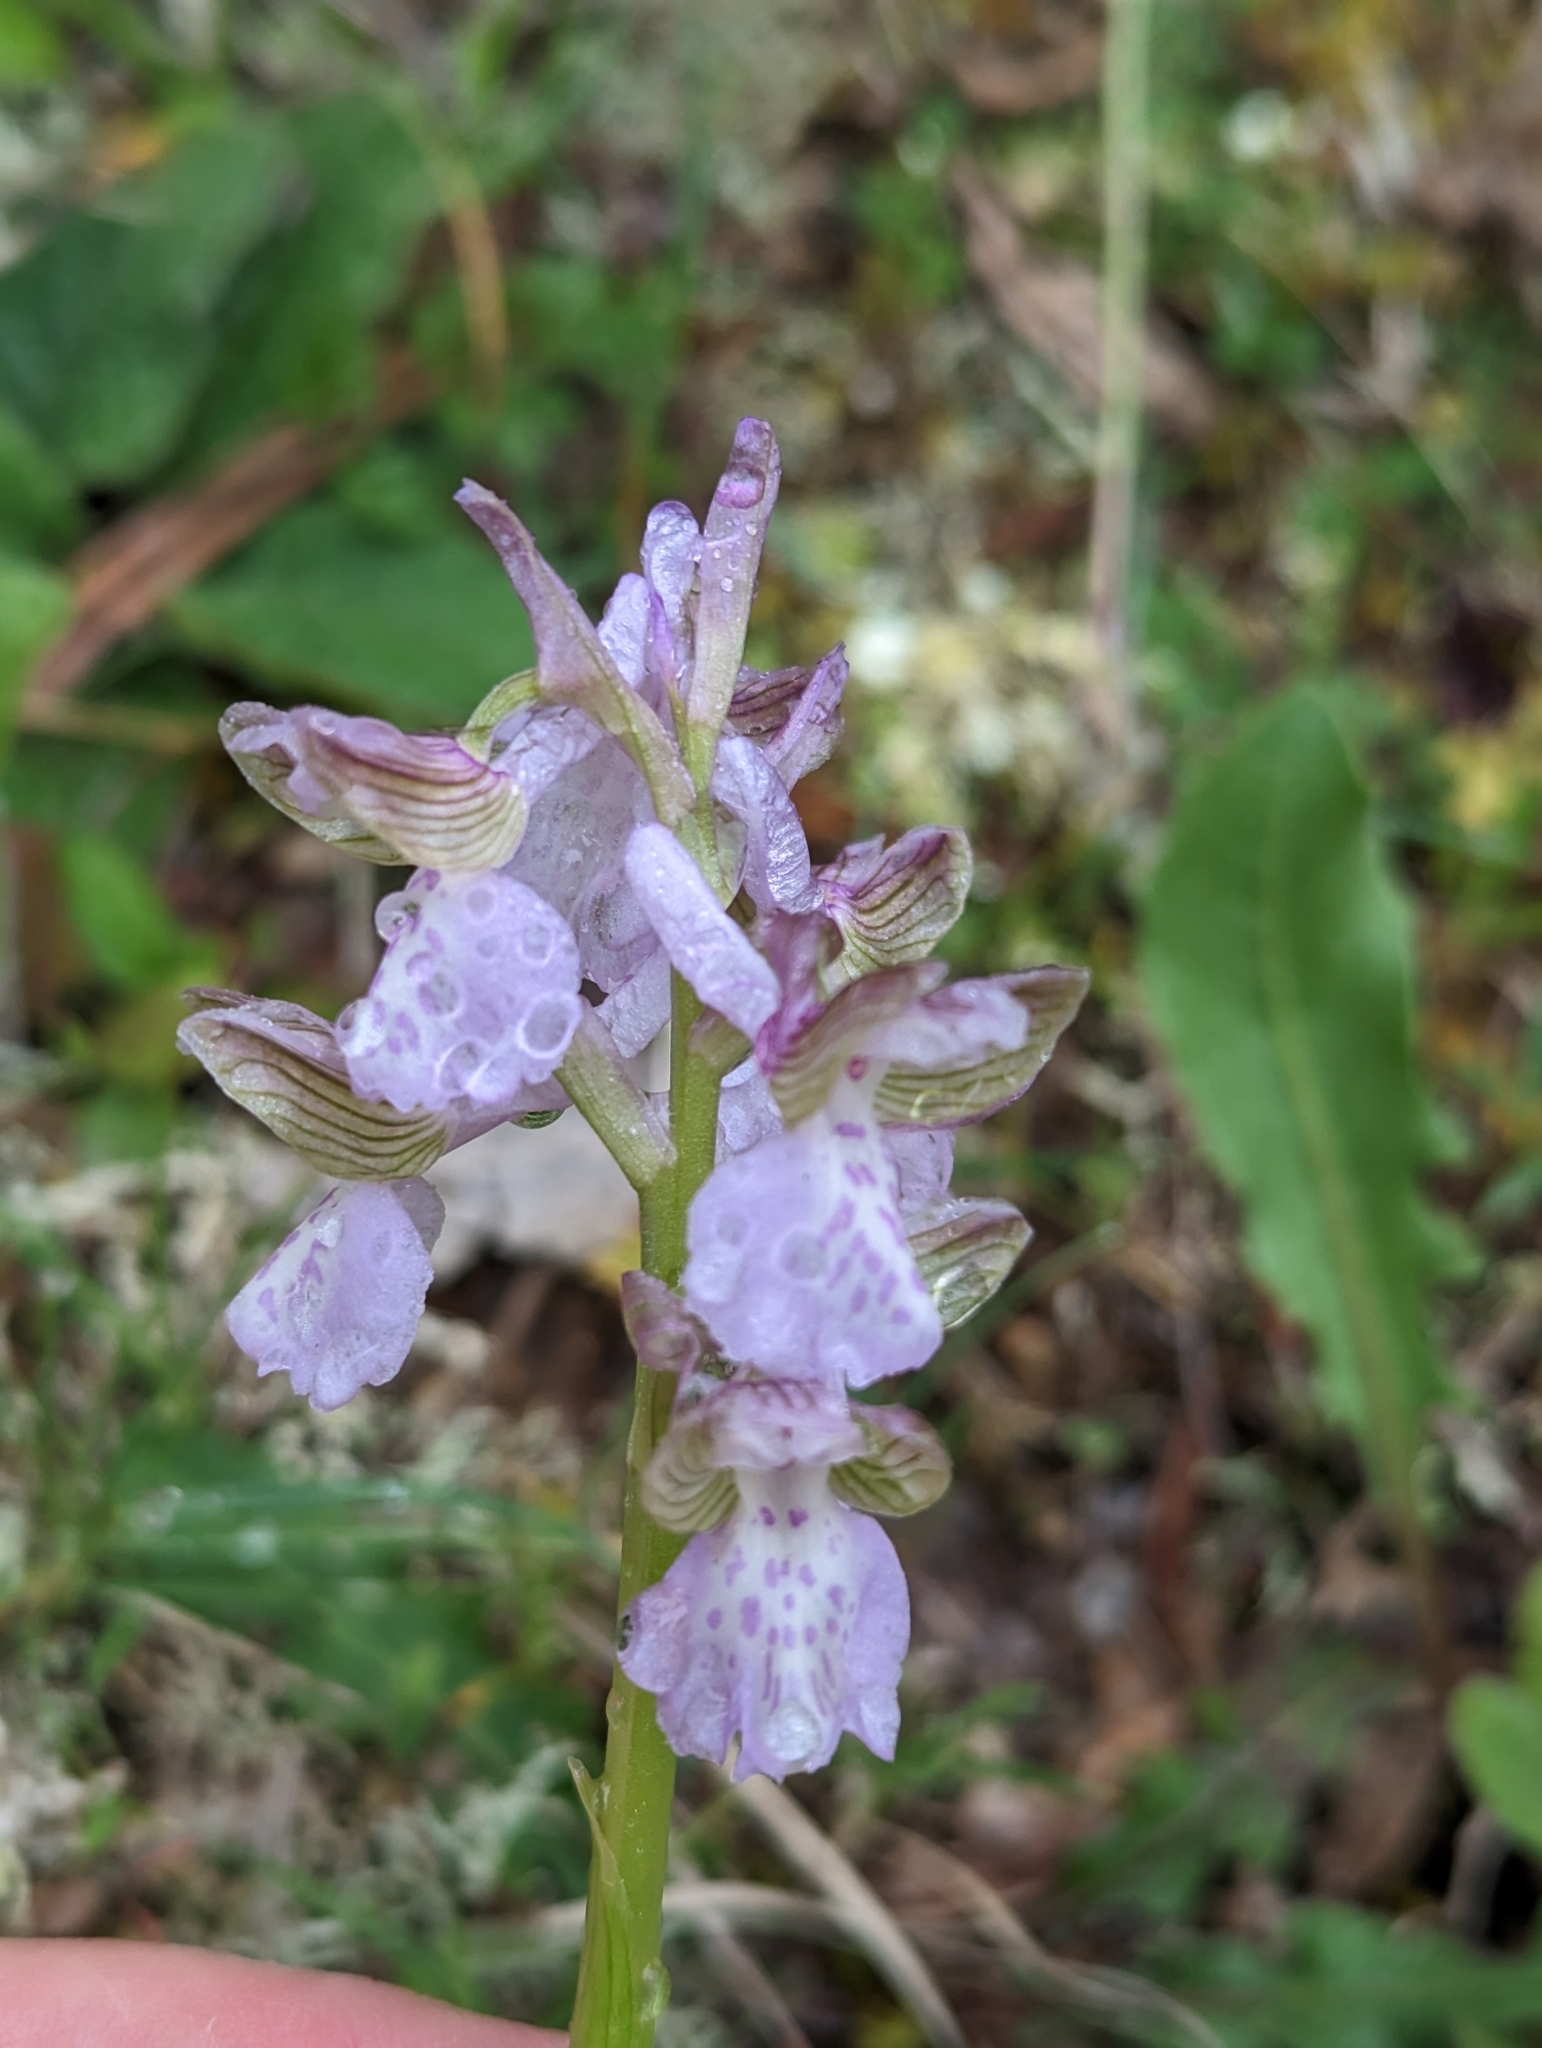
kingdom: Plantae
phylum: Tracheophyta
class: Liliopsida
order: Asparagales
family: Orchidaceae
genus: Anacamptis
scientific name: Anacamptis morio
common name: Green-winged orchid
